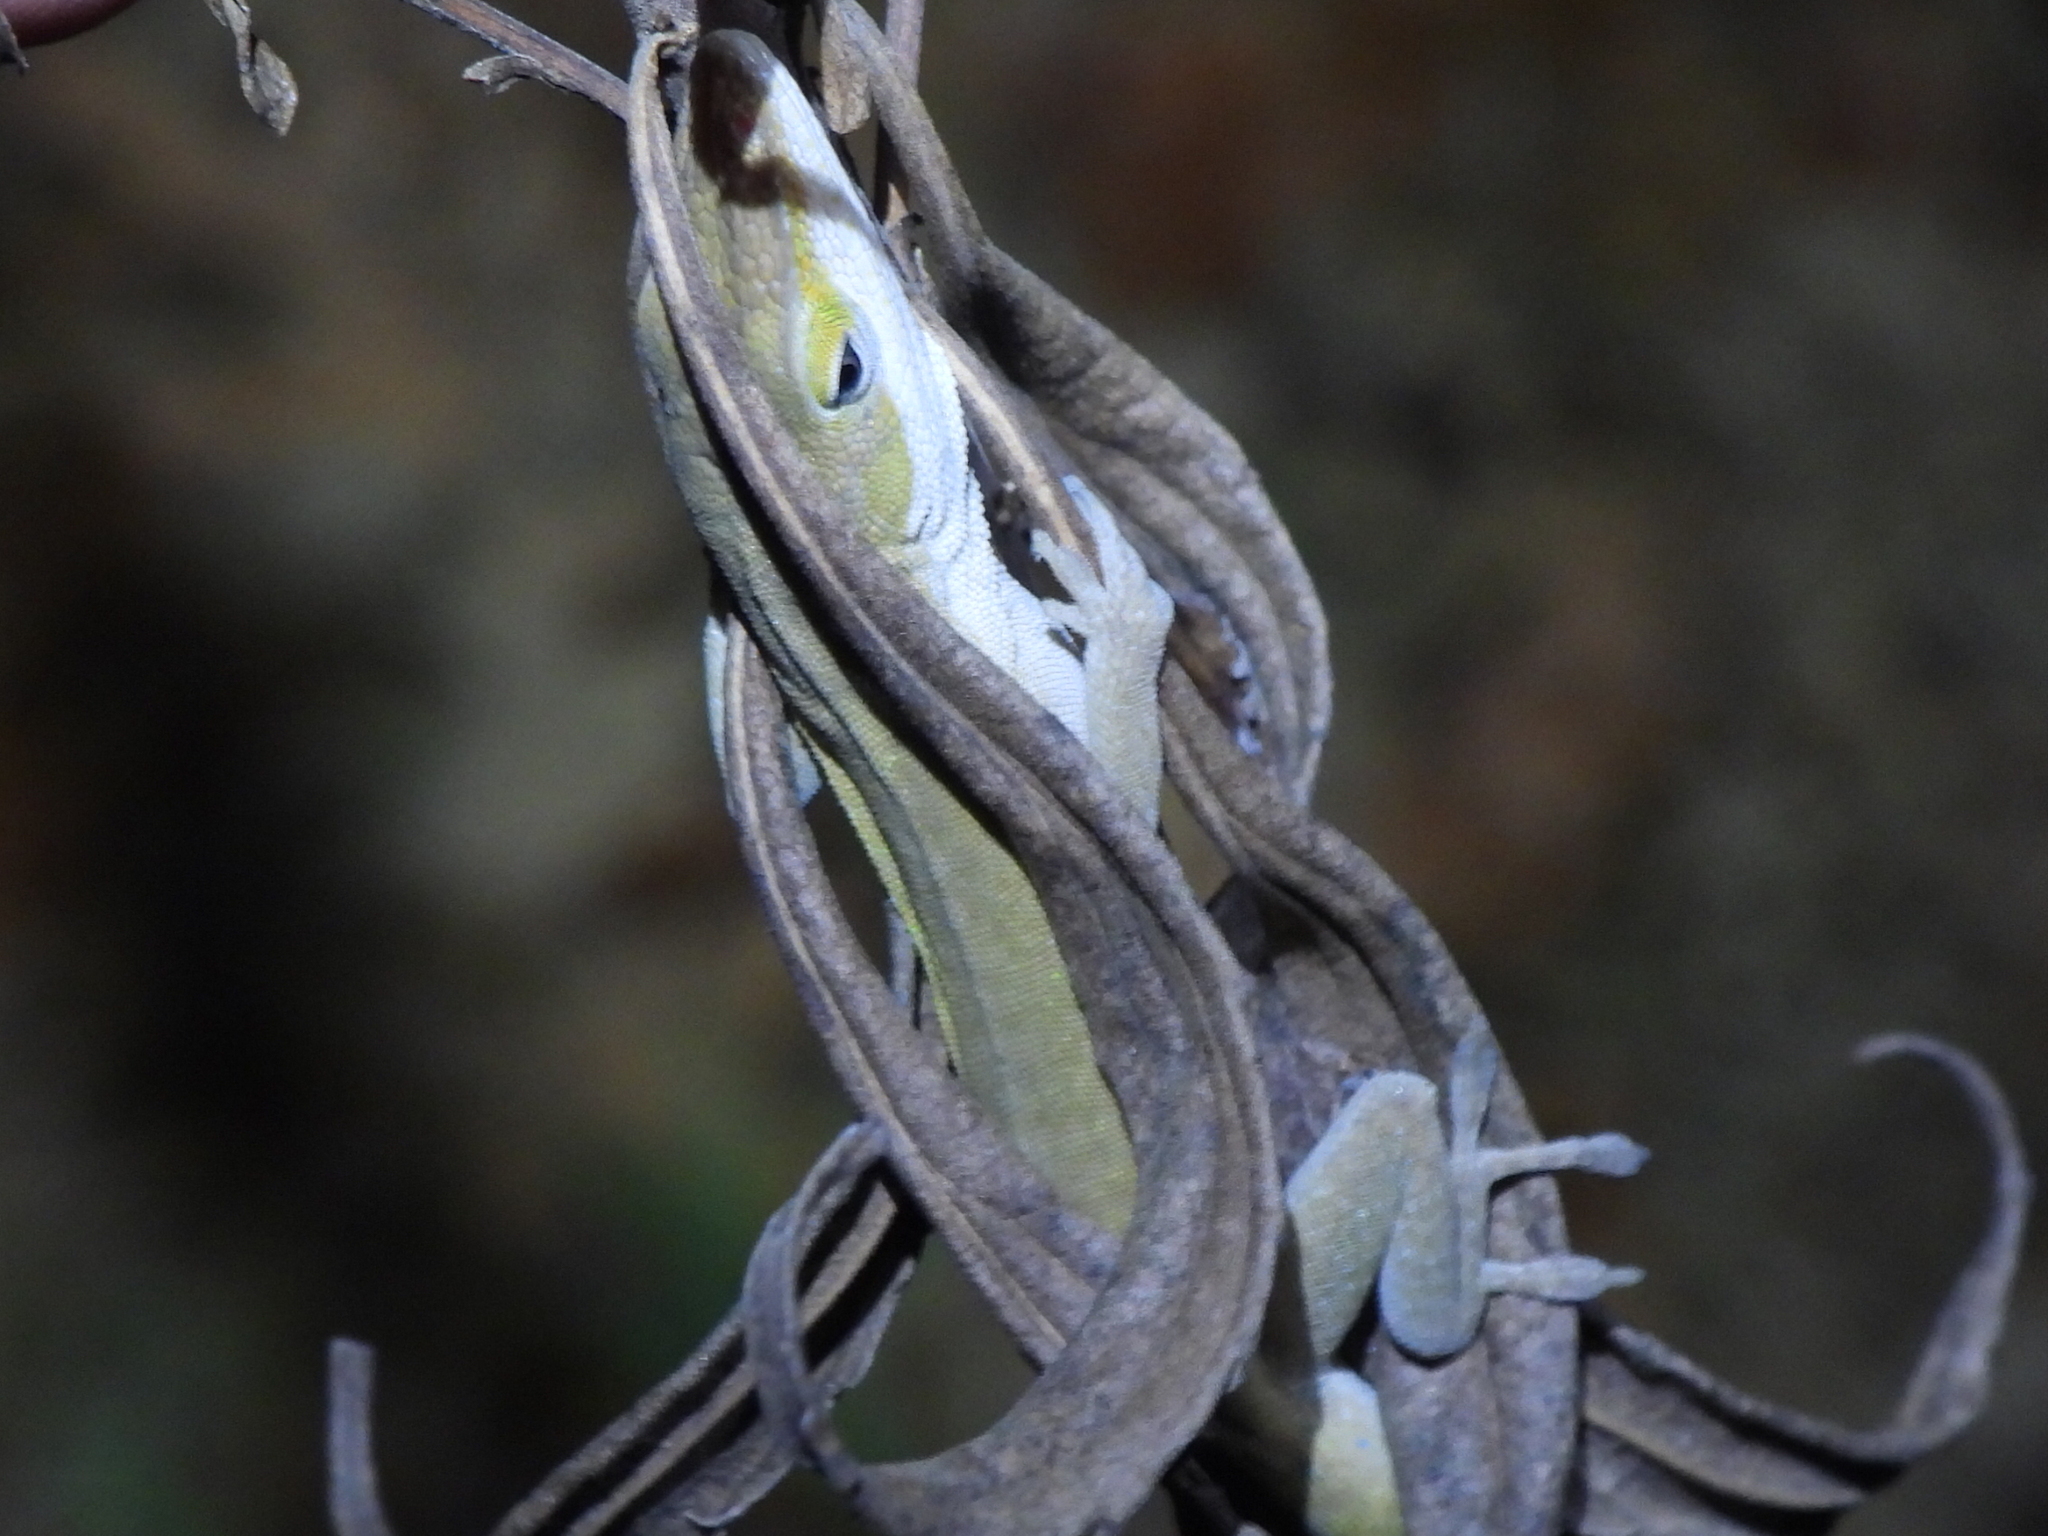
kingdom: Animalia
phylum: Chordata
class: Squamata
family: Dactyloidae
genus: Anolis
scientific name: Anolis carolinensis
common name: Green anole
